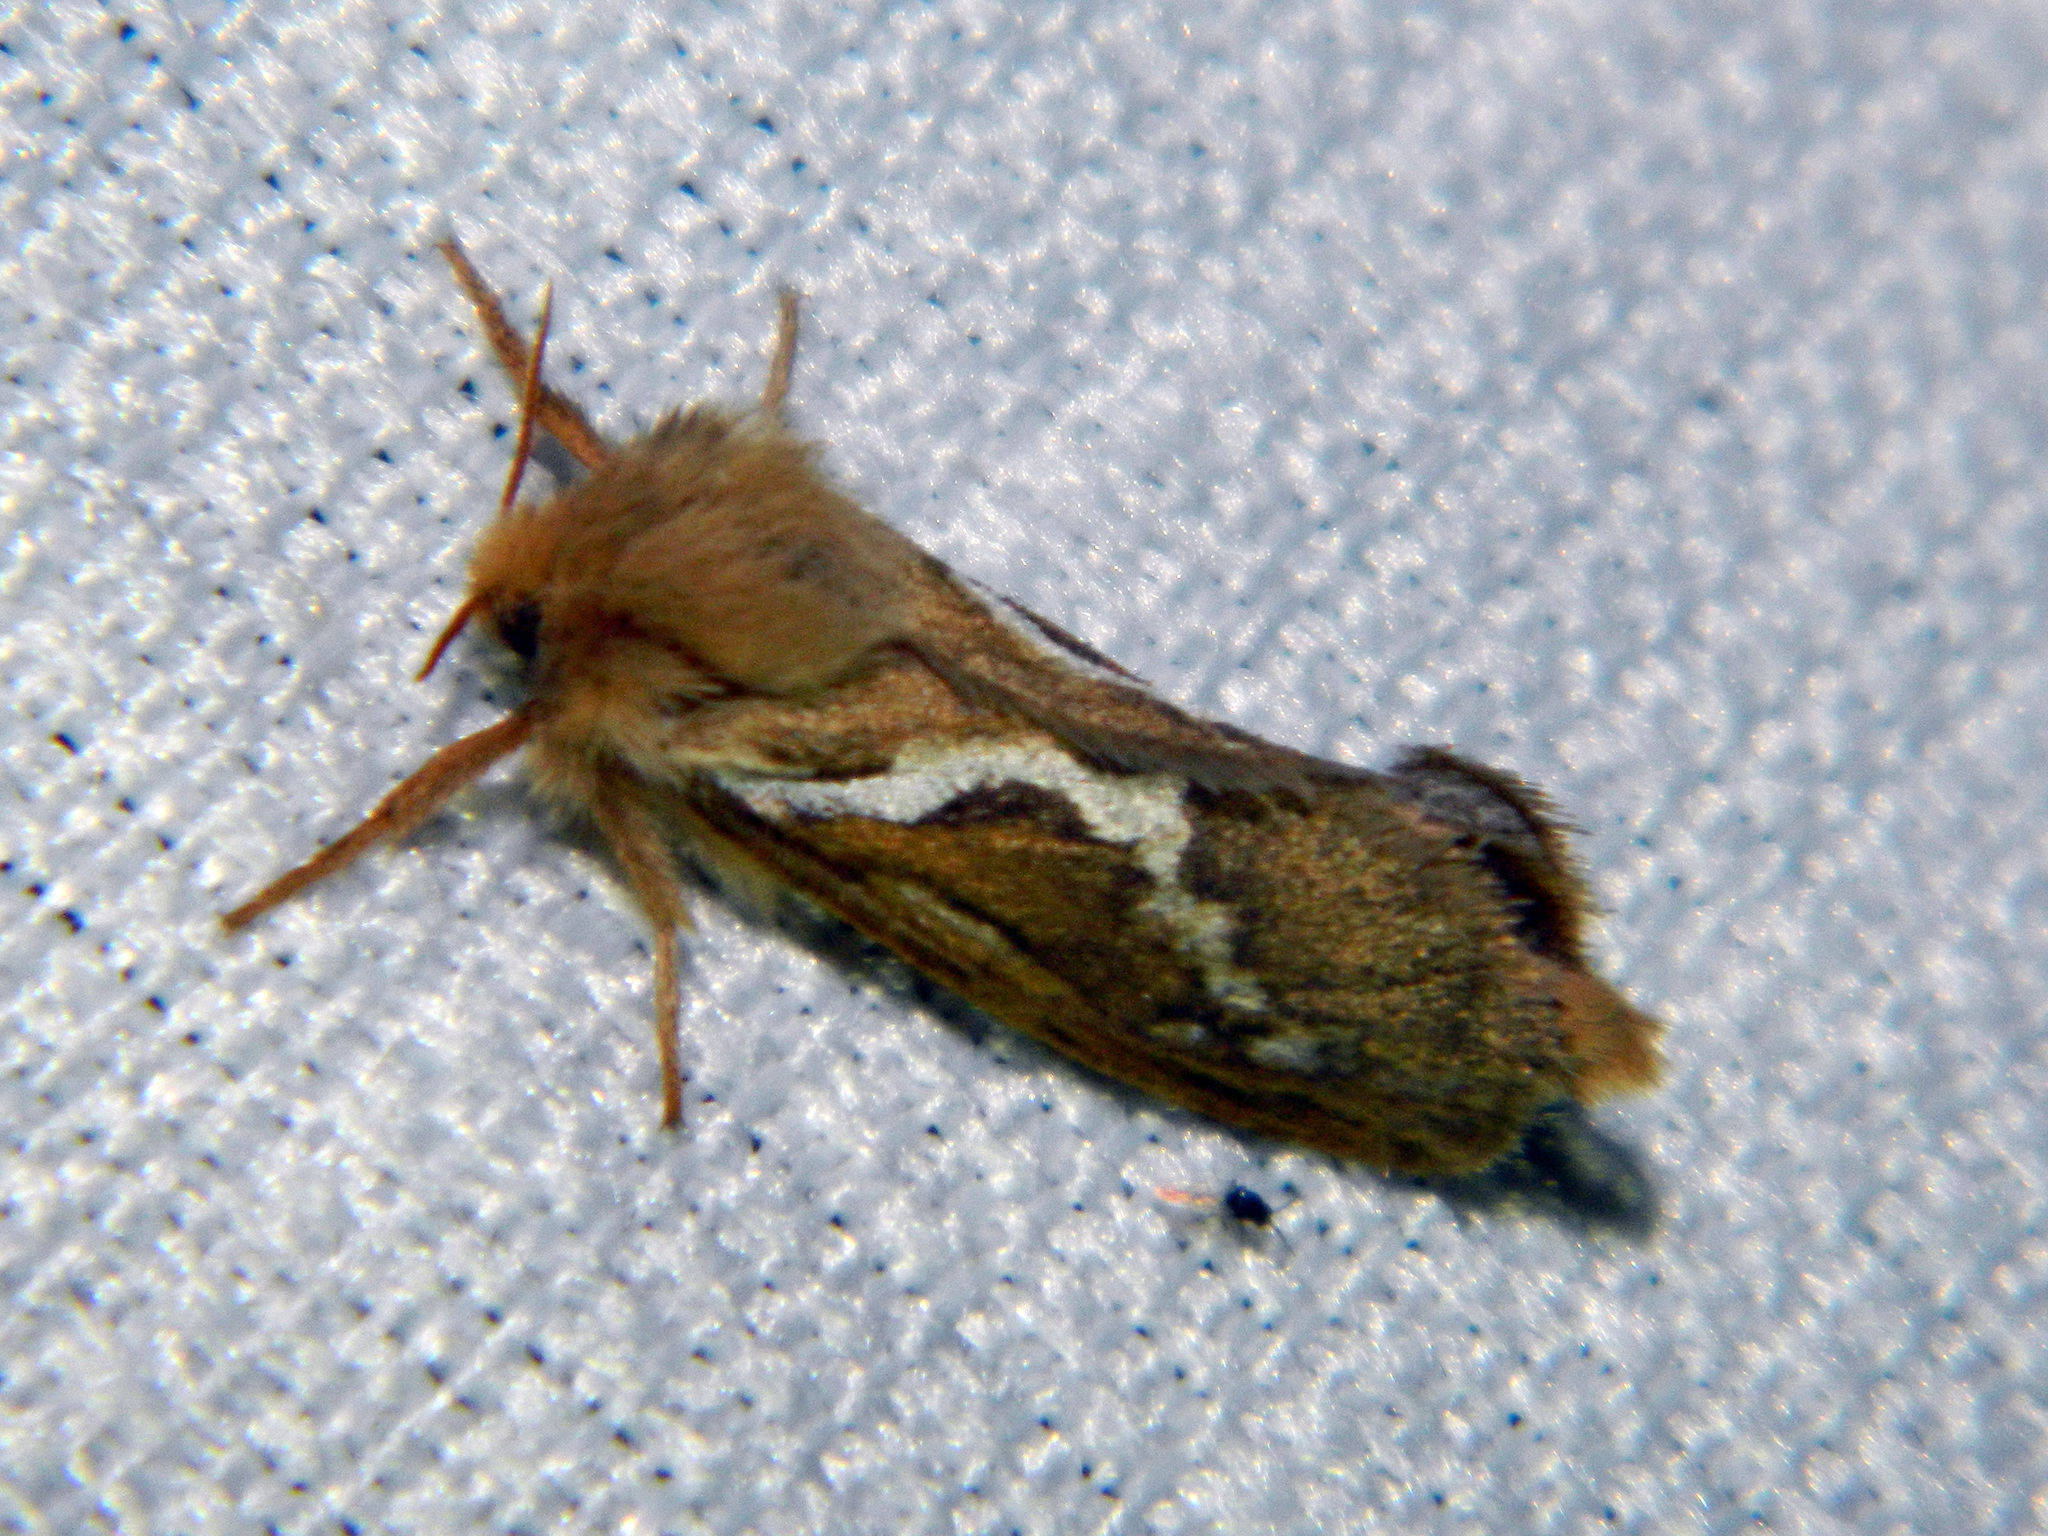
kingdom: Animalia
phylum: Arthropoda
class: Insecta
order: Lepidoptera
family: Hepialidae
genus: Korscheltellus
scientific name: Korscheltellus lupulina
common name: Common swift
